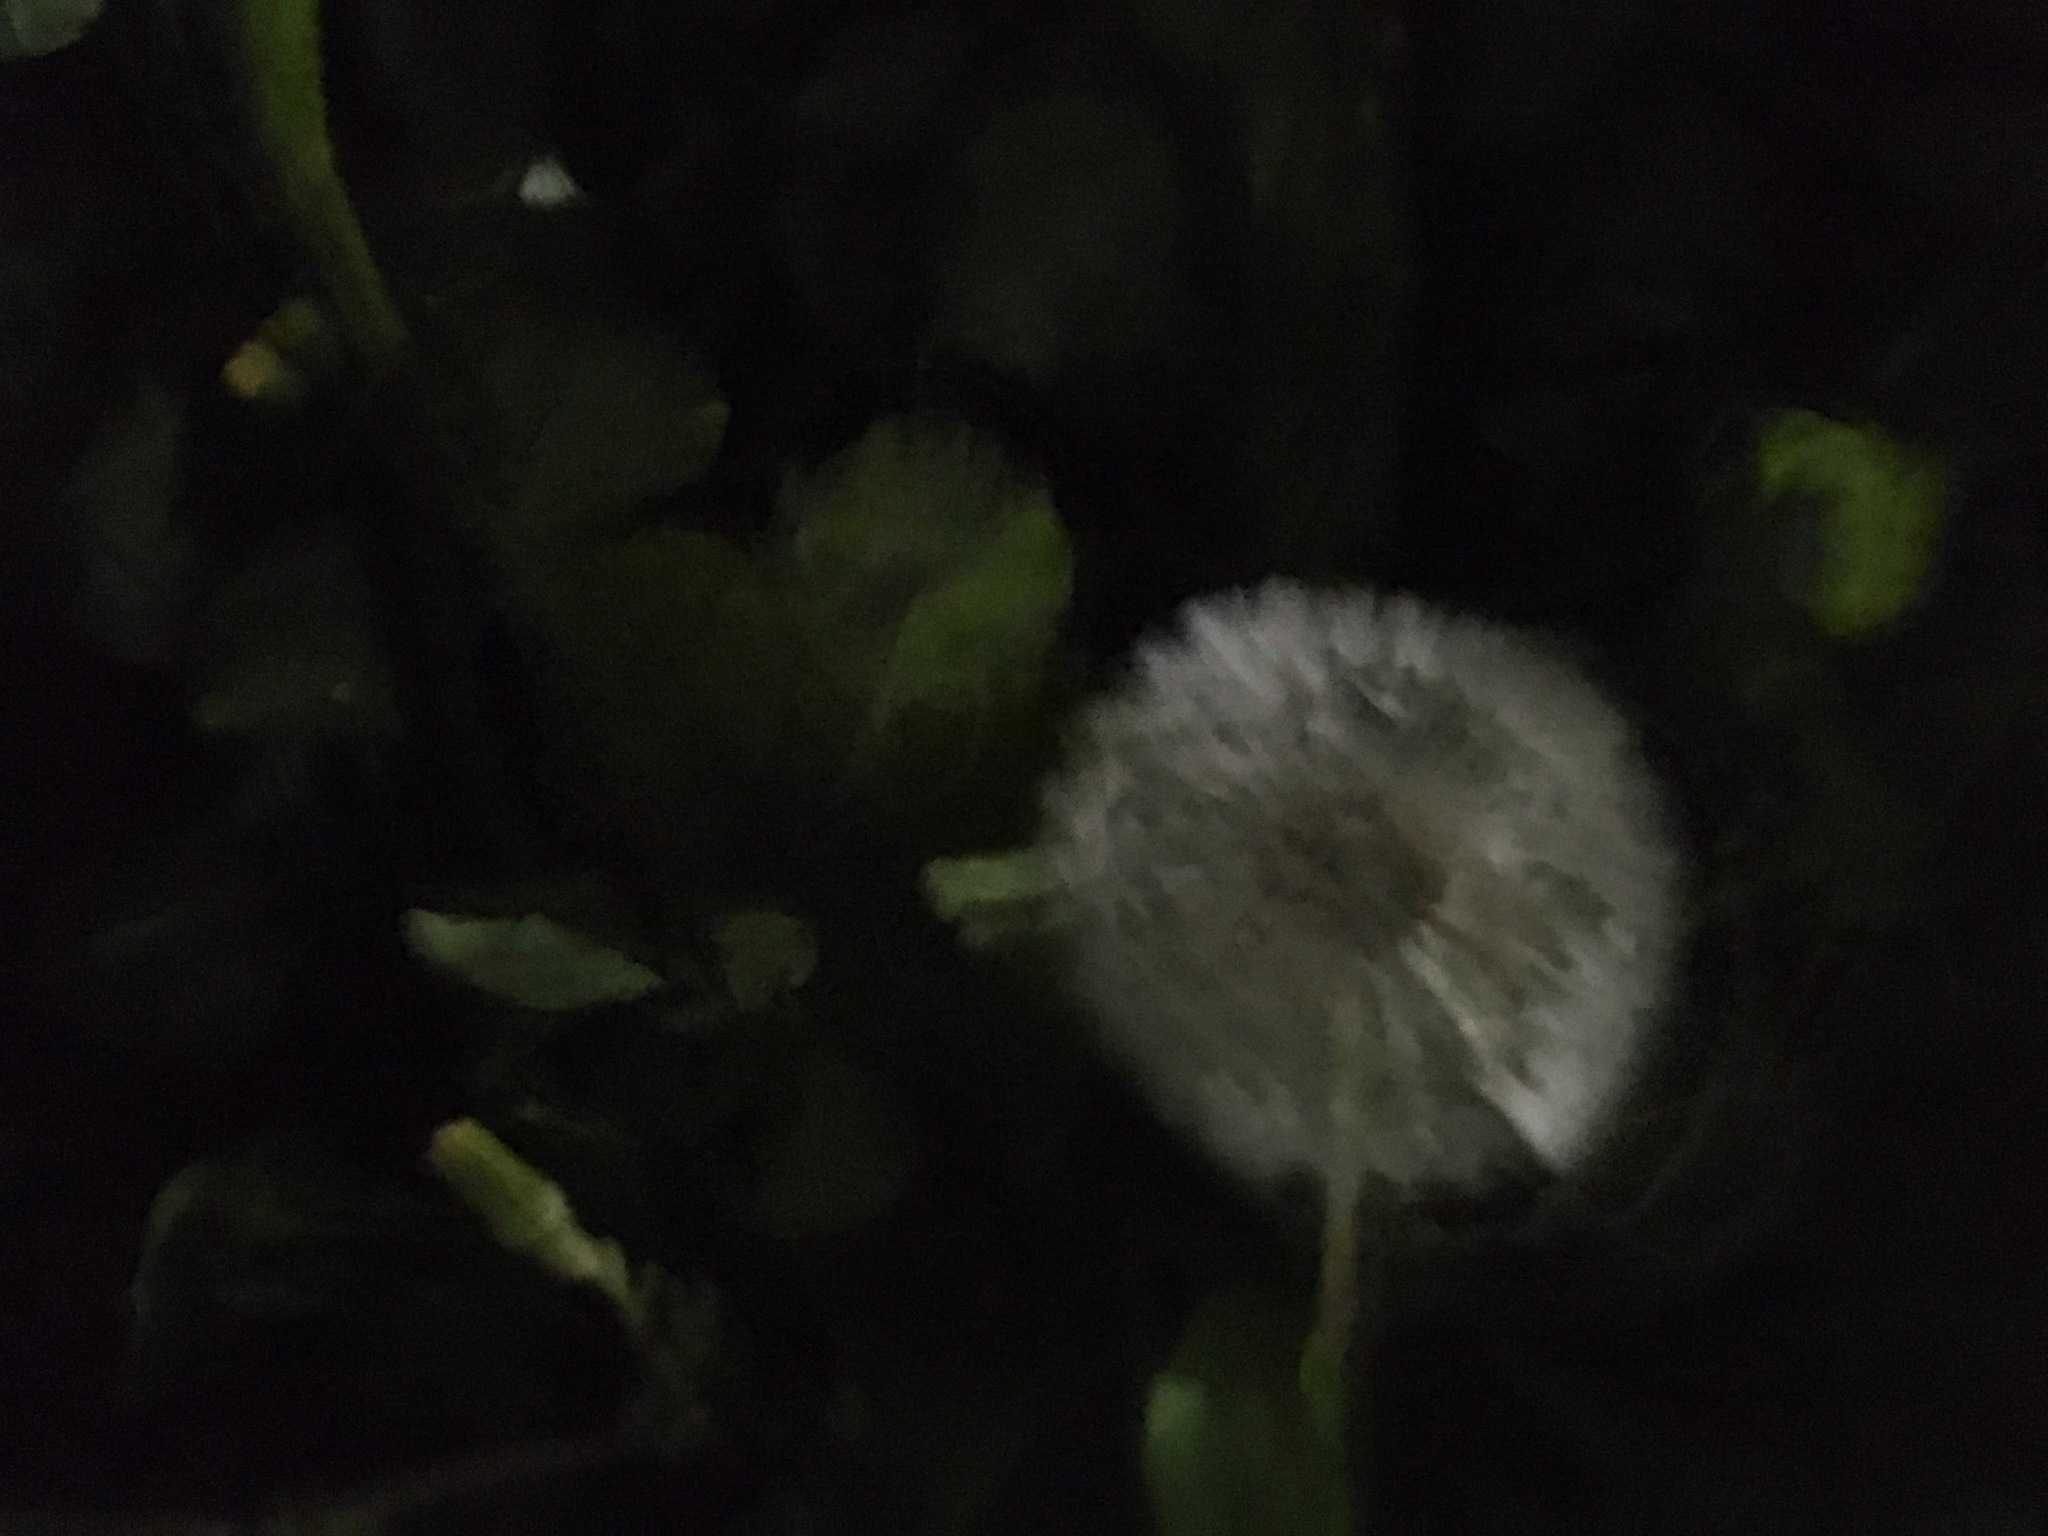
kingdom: Plantae
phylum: Tracheophyta
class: Magnoliopsida
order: Asterales
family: Asteraceae
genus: Taraxacum
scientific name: Taraxacum officinale
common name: Common dandelion
